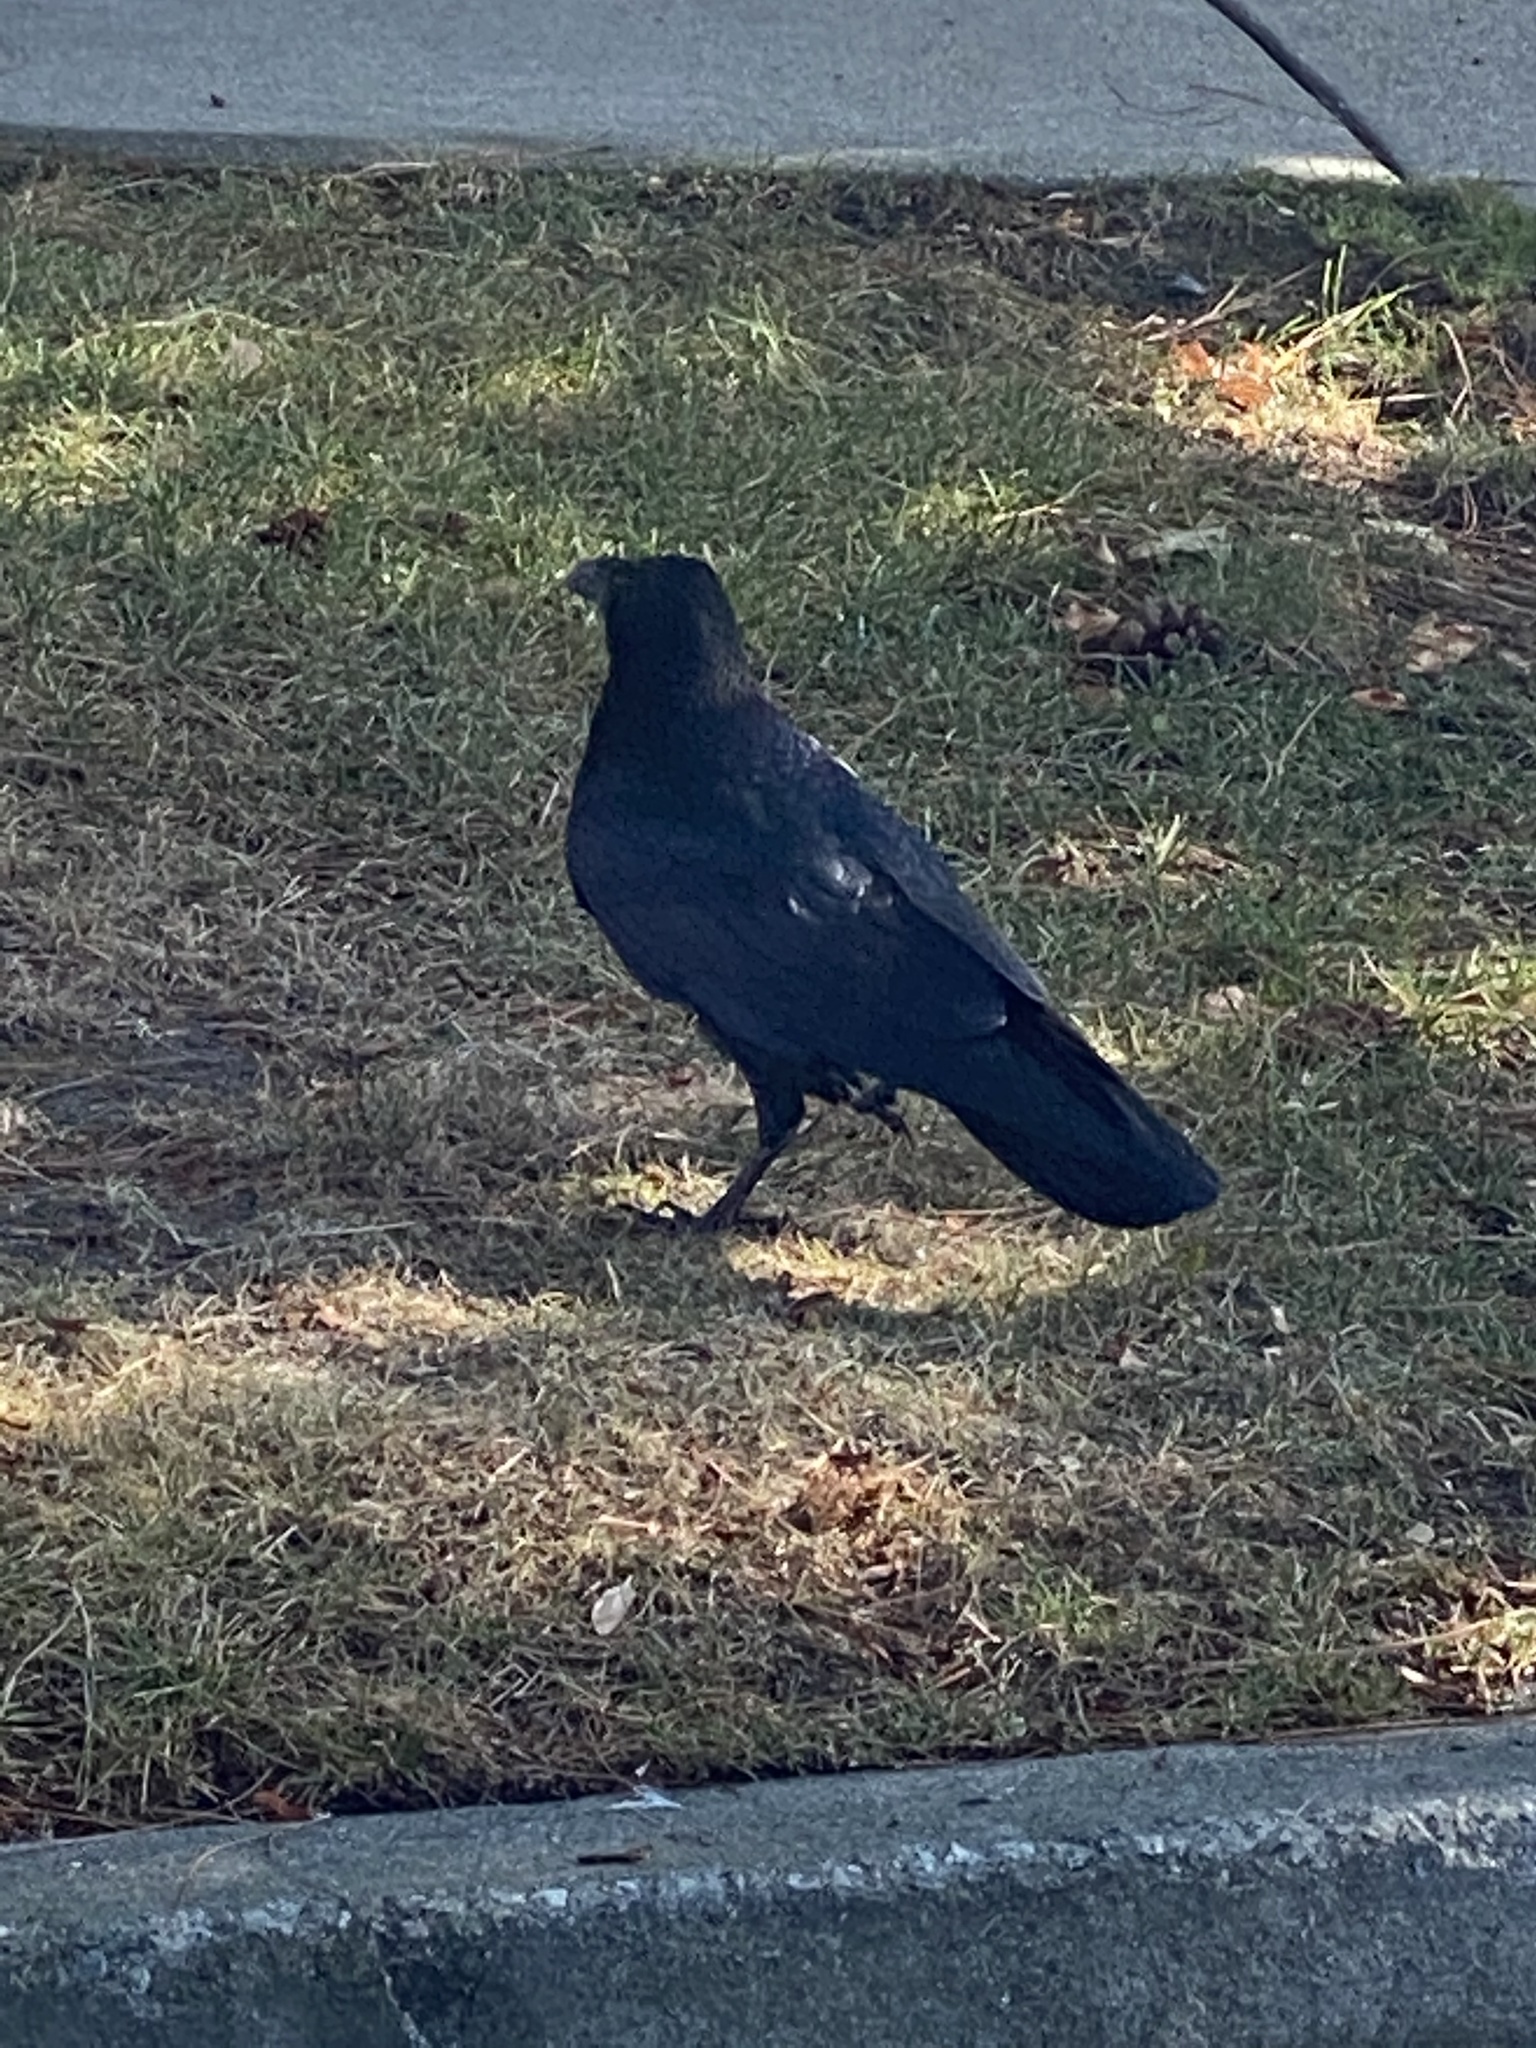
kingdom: Animalia
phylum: Chordata
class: Aves
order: Passeriformes
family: Corvidae
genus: Corvus
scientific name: Corvus corax
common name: Common raven
